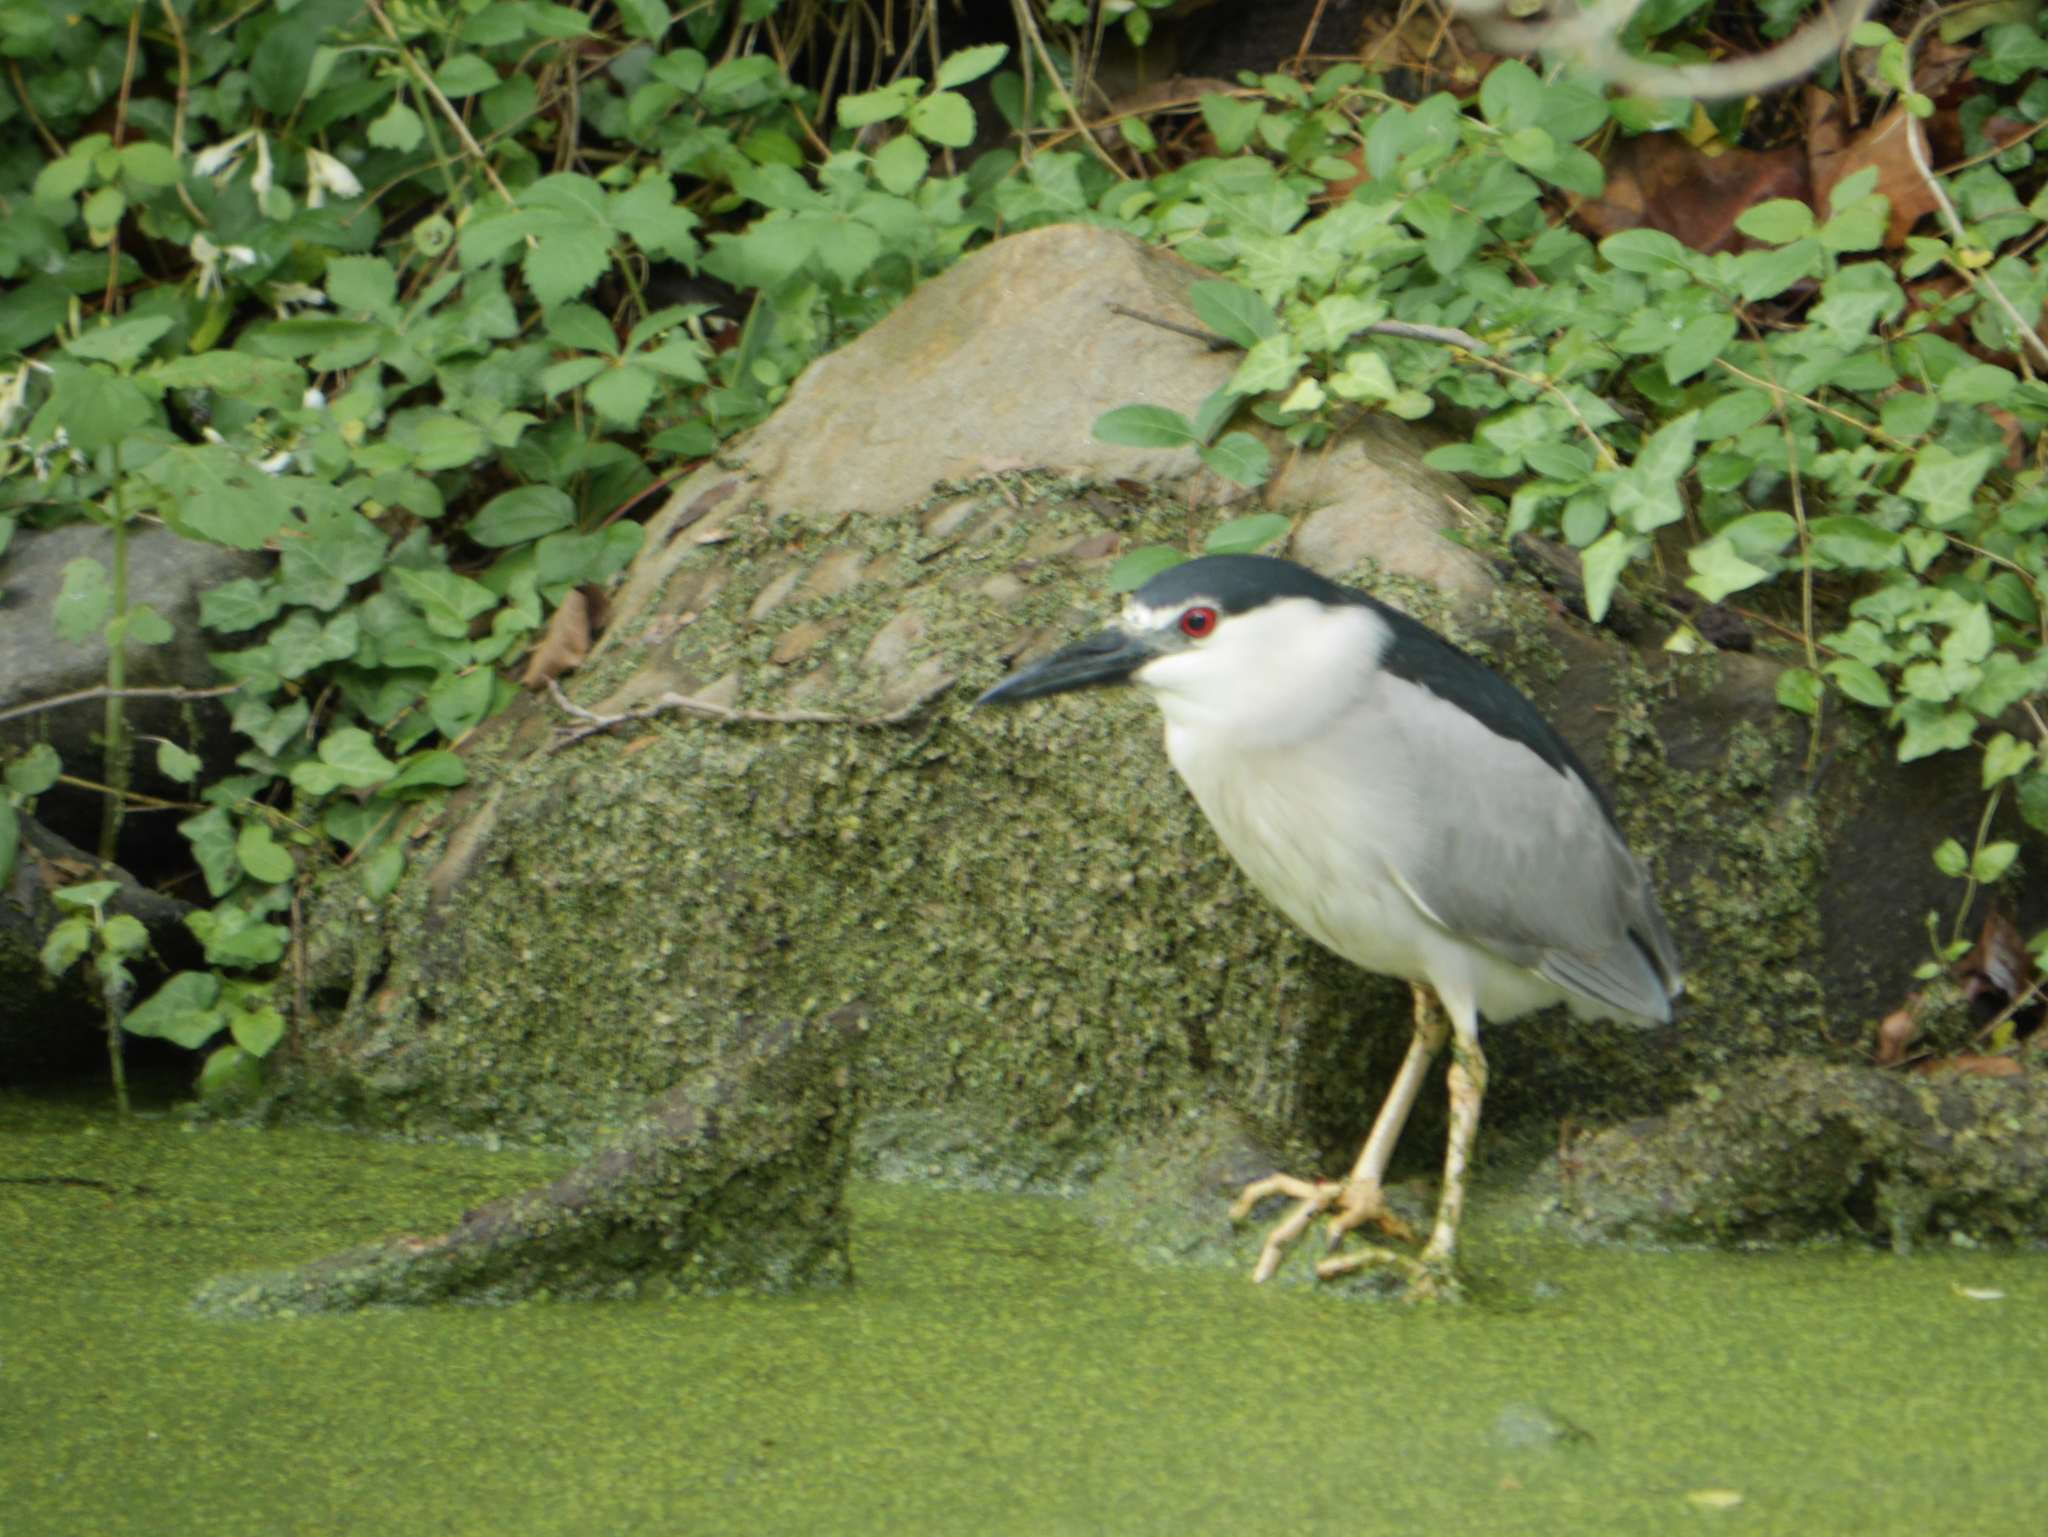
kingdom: Animalia
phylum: Chordata
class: Aves
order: Pelecaniformes
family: Ardeidae
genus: Nycticorax
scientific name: Nycticorax nycticorax
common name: Black-crowned night heron
